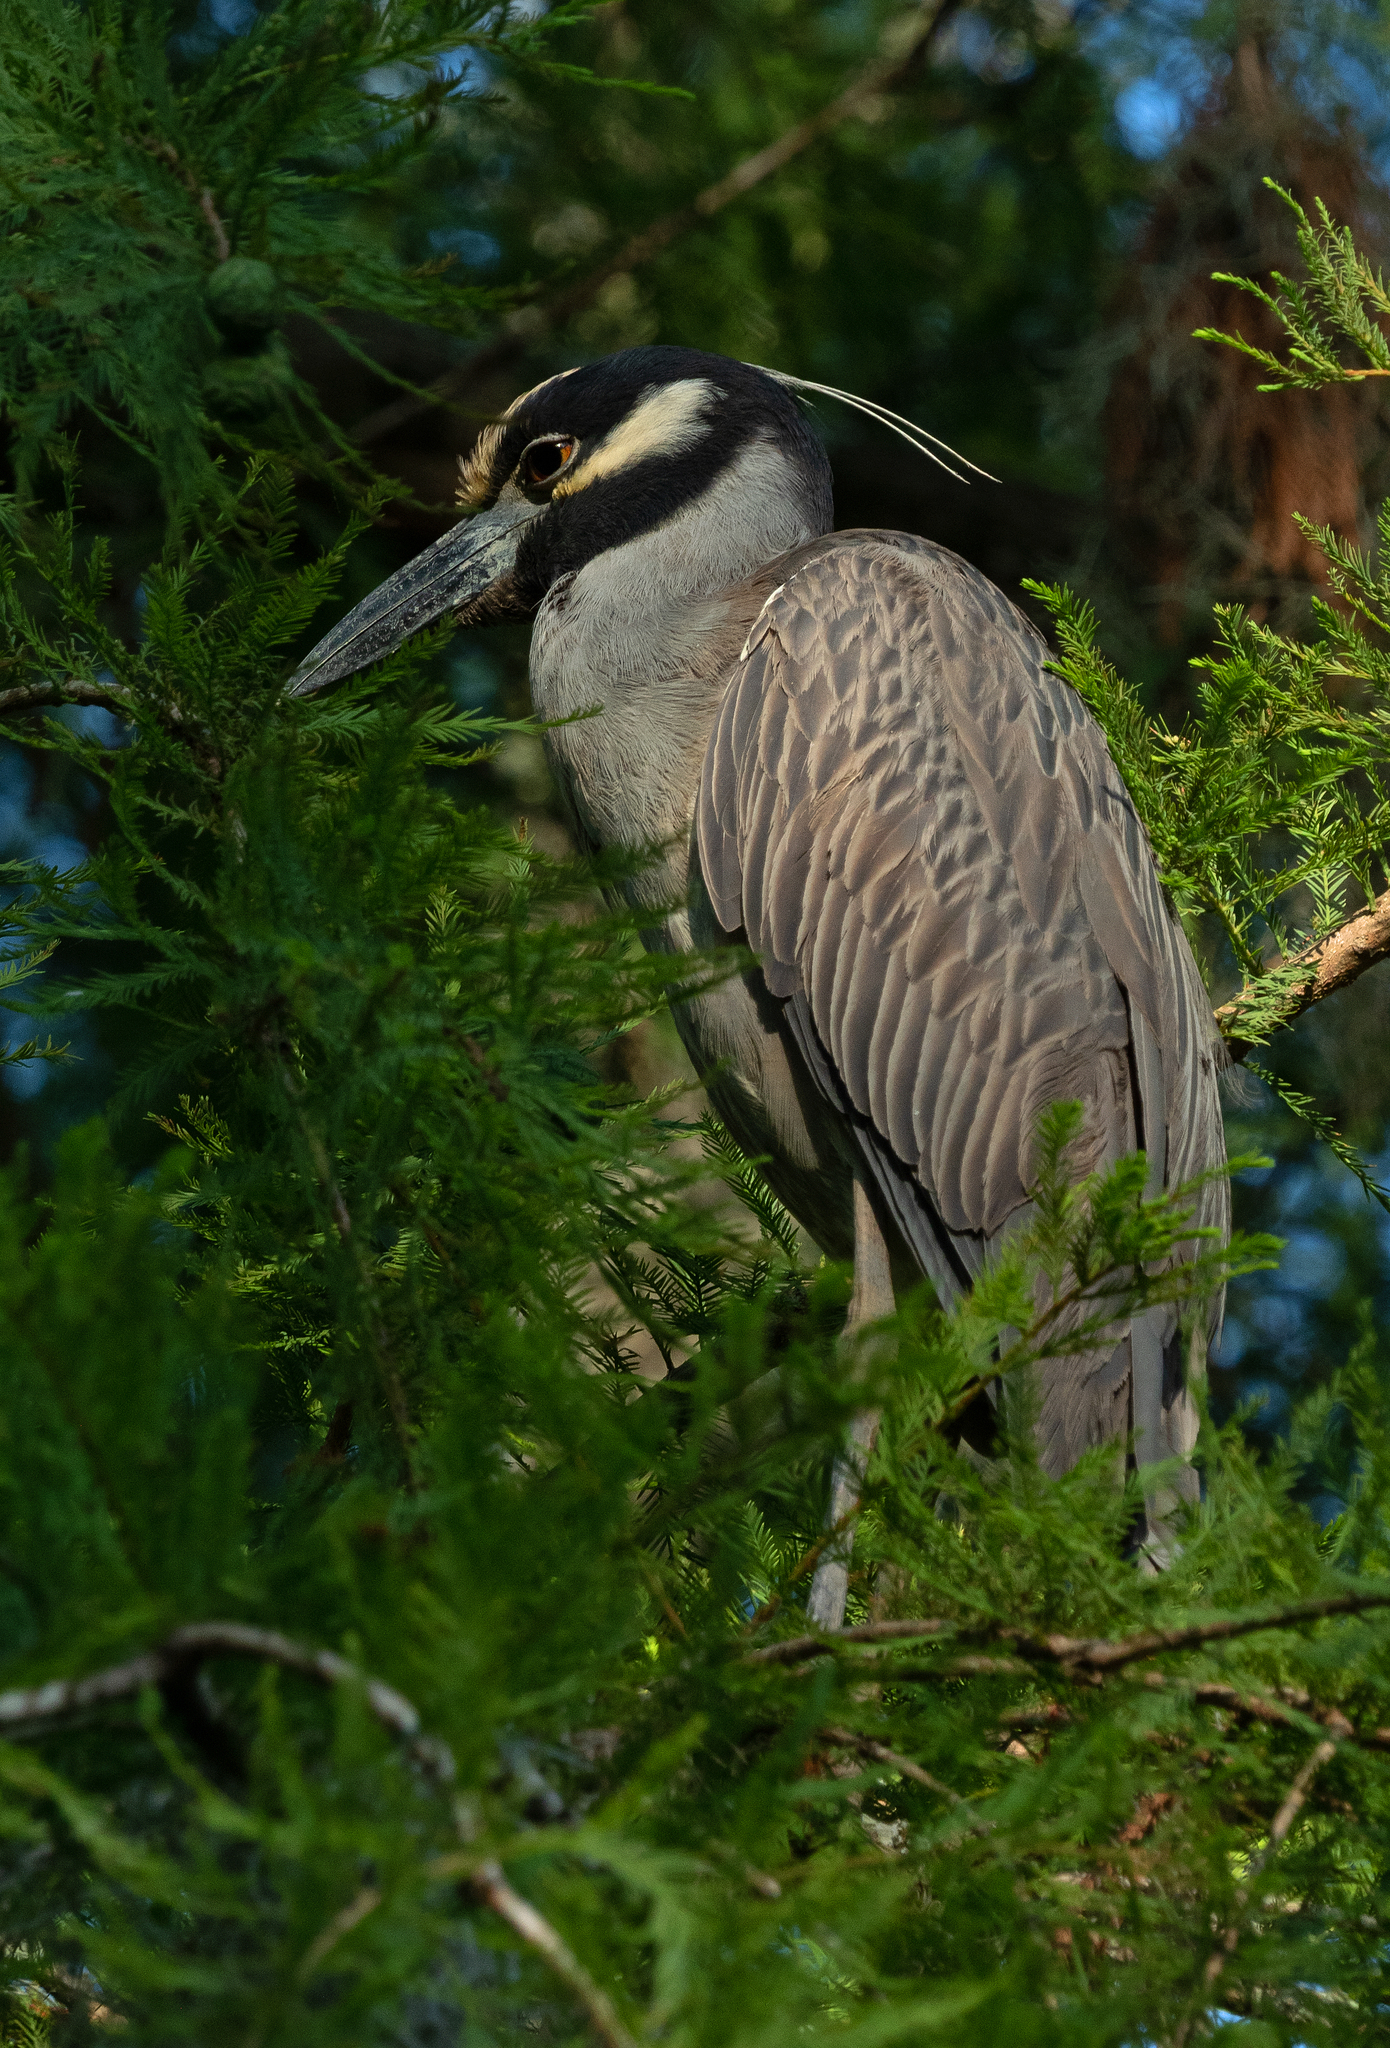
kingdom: Animalia
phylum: Chordata
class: Aves
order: Pelecaniformes
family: Ardeidae
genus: Nyctanassa
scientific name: Nyctanassa violacea
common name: Yellow-crowned night heron
